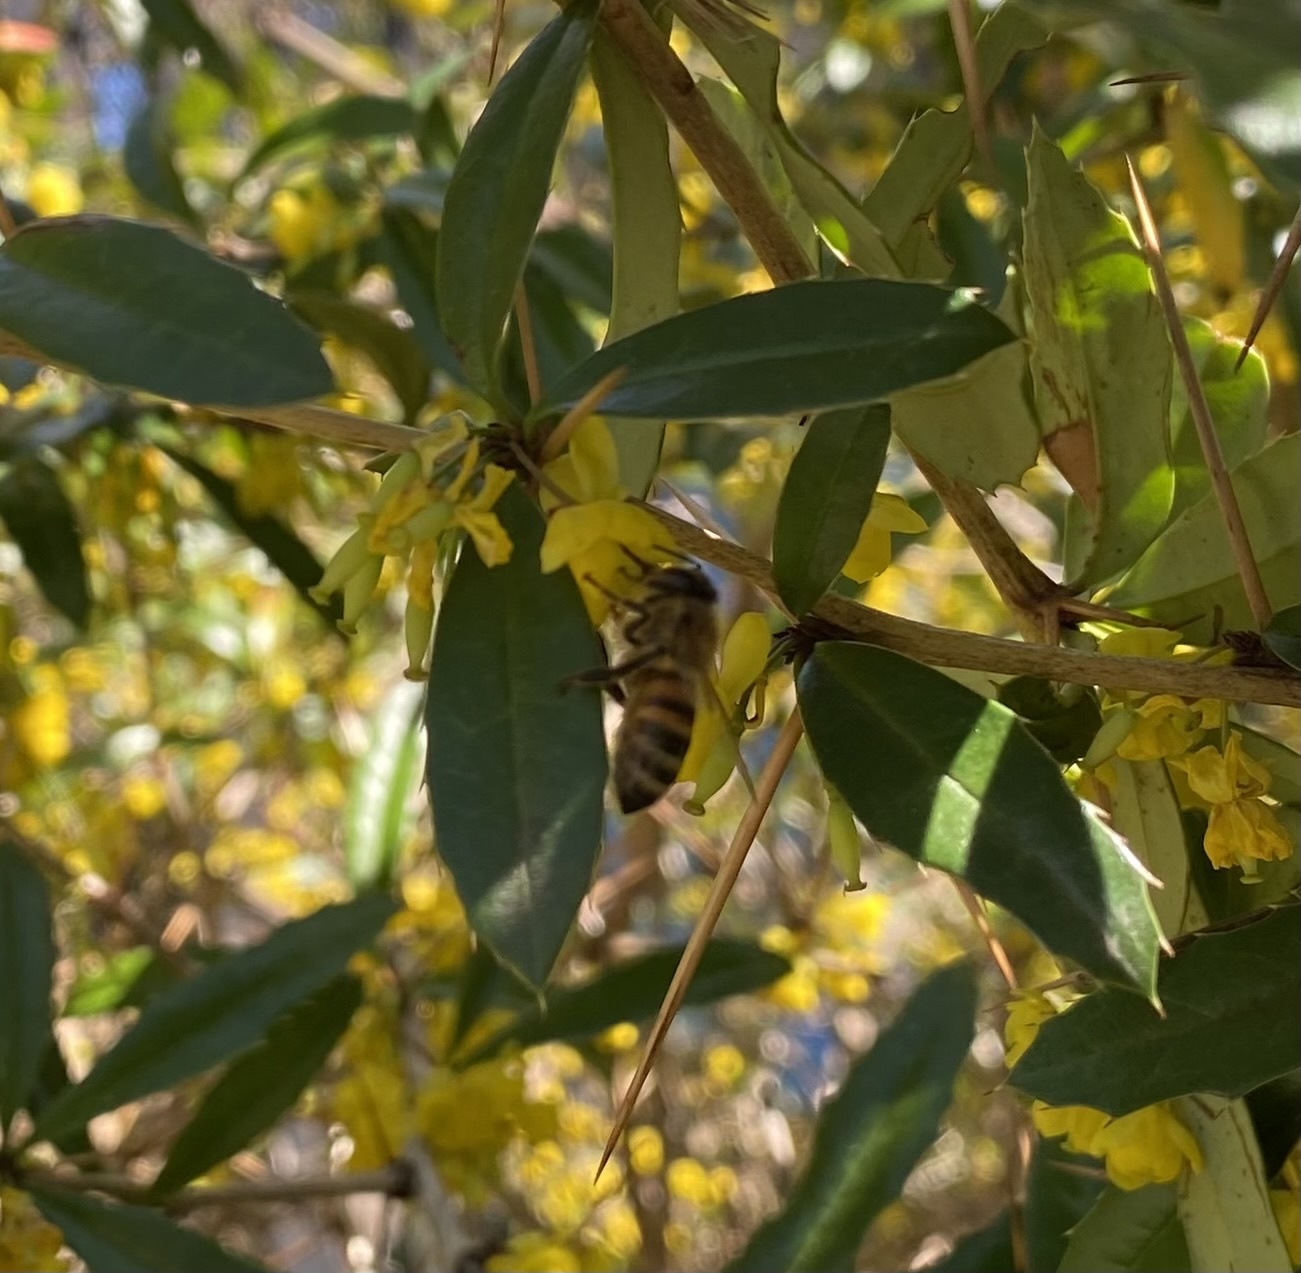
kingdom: Animalia
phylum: Arthropoda
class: Insecta
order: Hymenoptera
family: Apidae
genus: Apis
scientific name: Apis mellifera
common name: Honey bee
